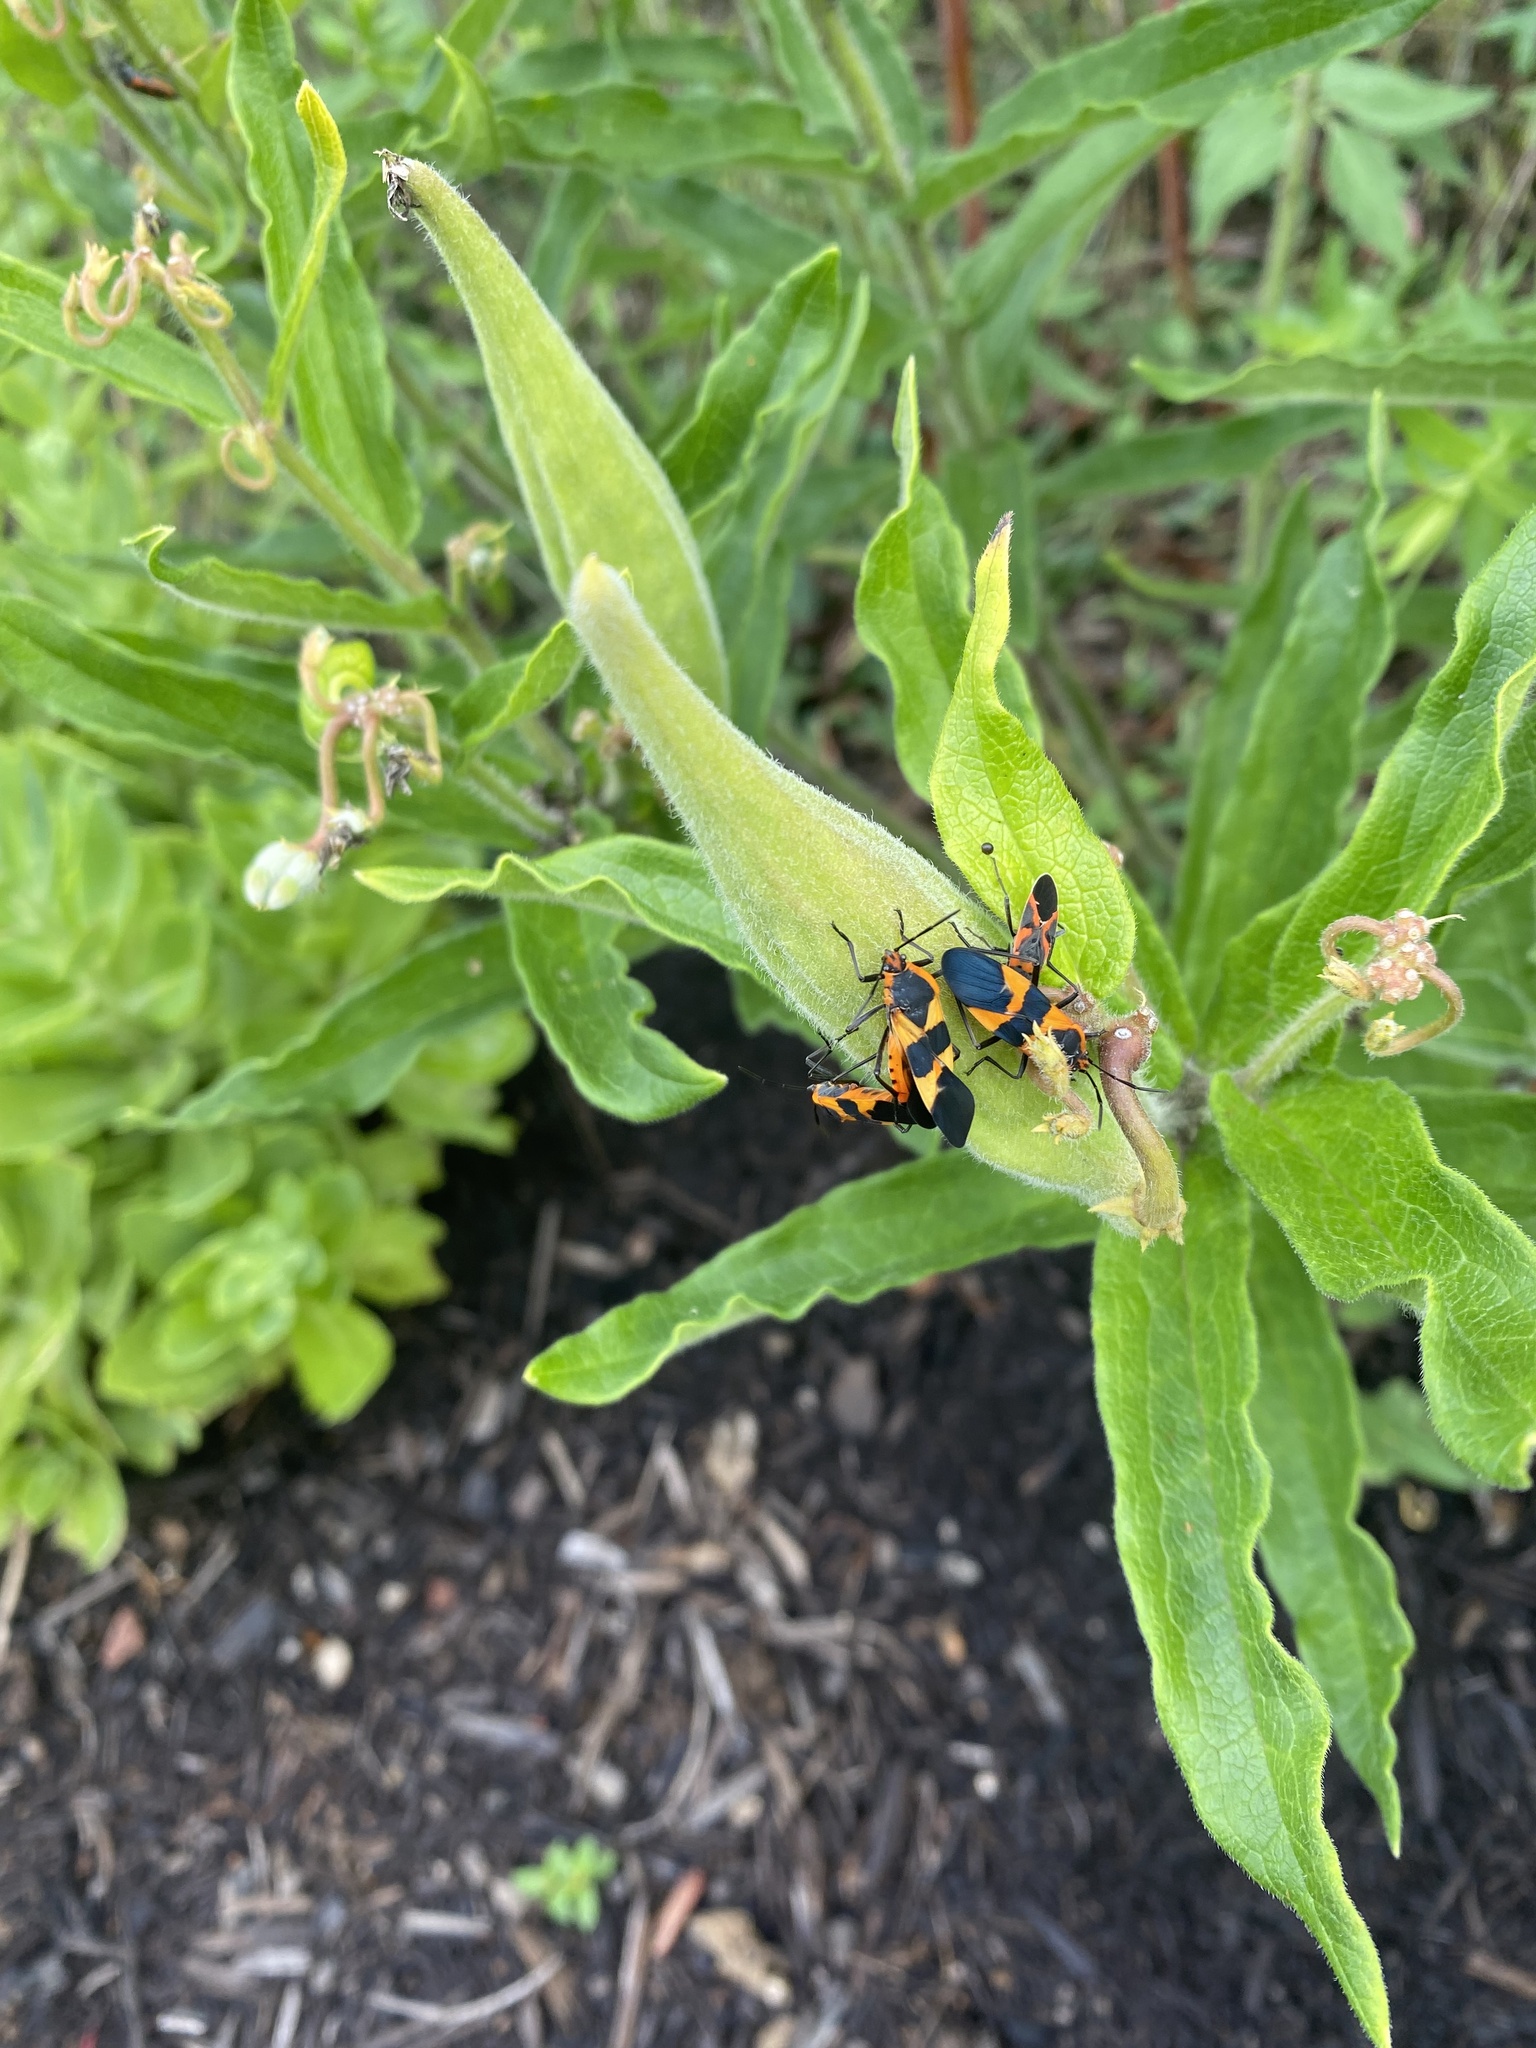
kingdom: Animalia
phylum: Arthropoda
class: Insecta
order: Hemiptera
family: Lygaeidae
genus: Oncopeltus
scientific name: Oncopeltus fasciatus
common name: Large milkweed bug
